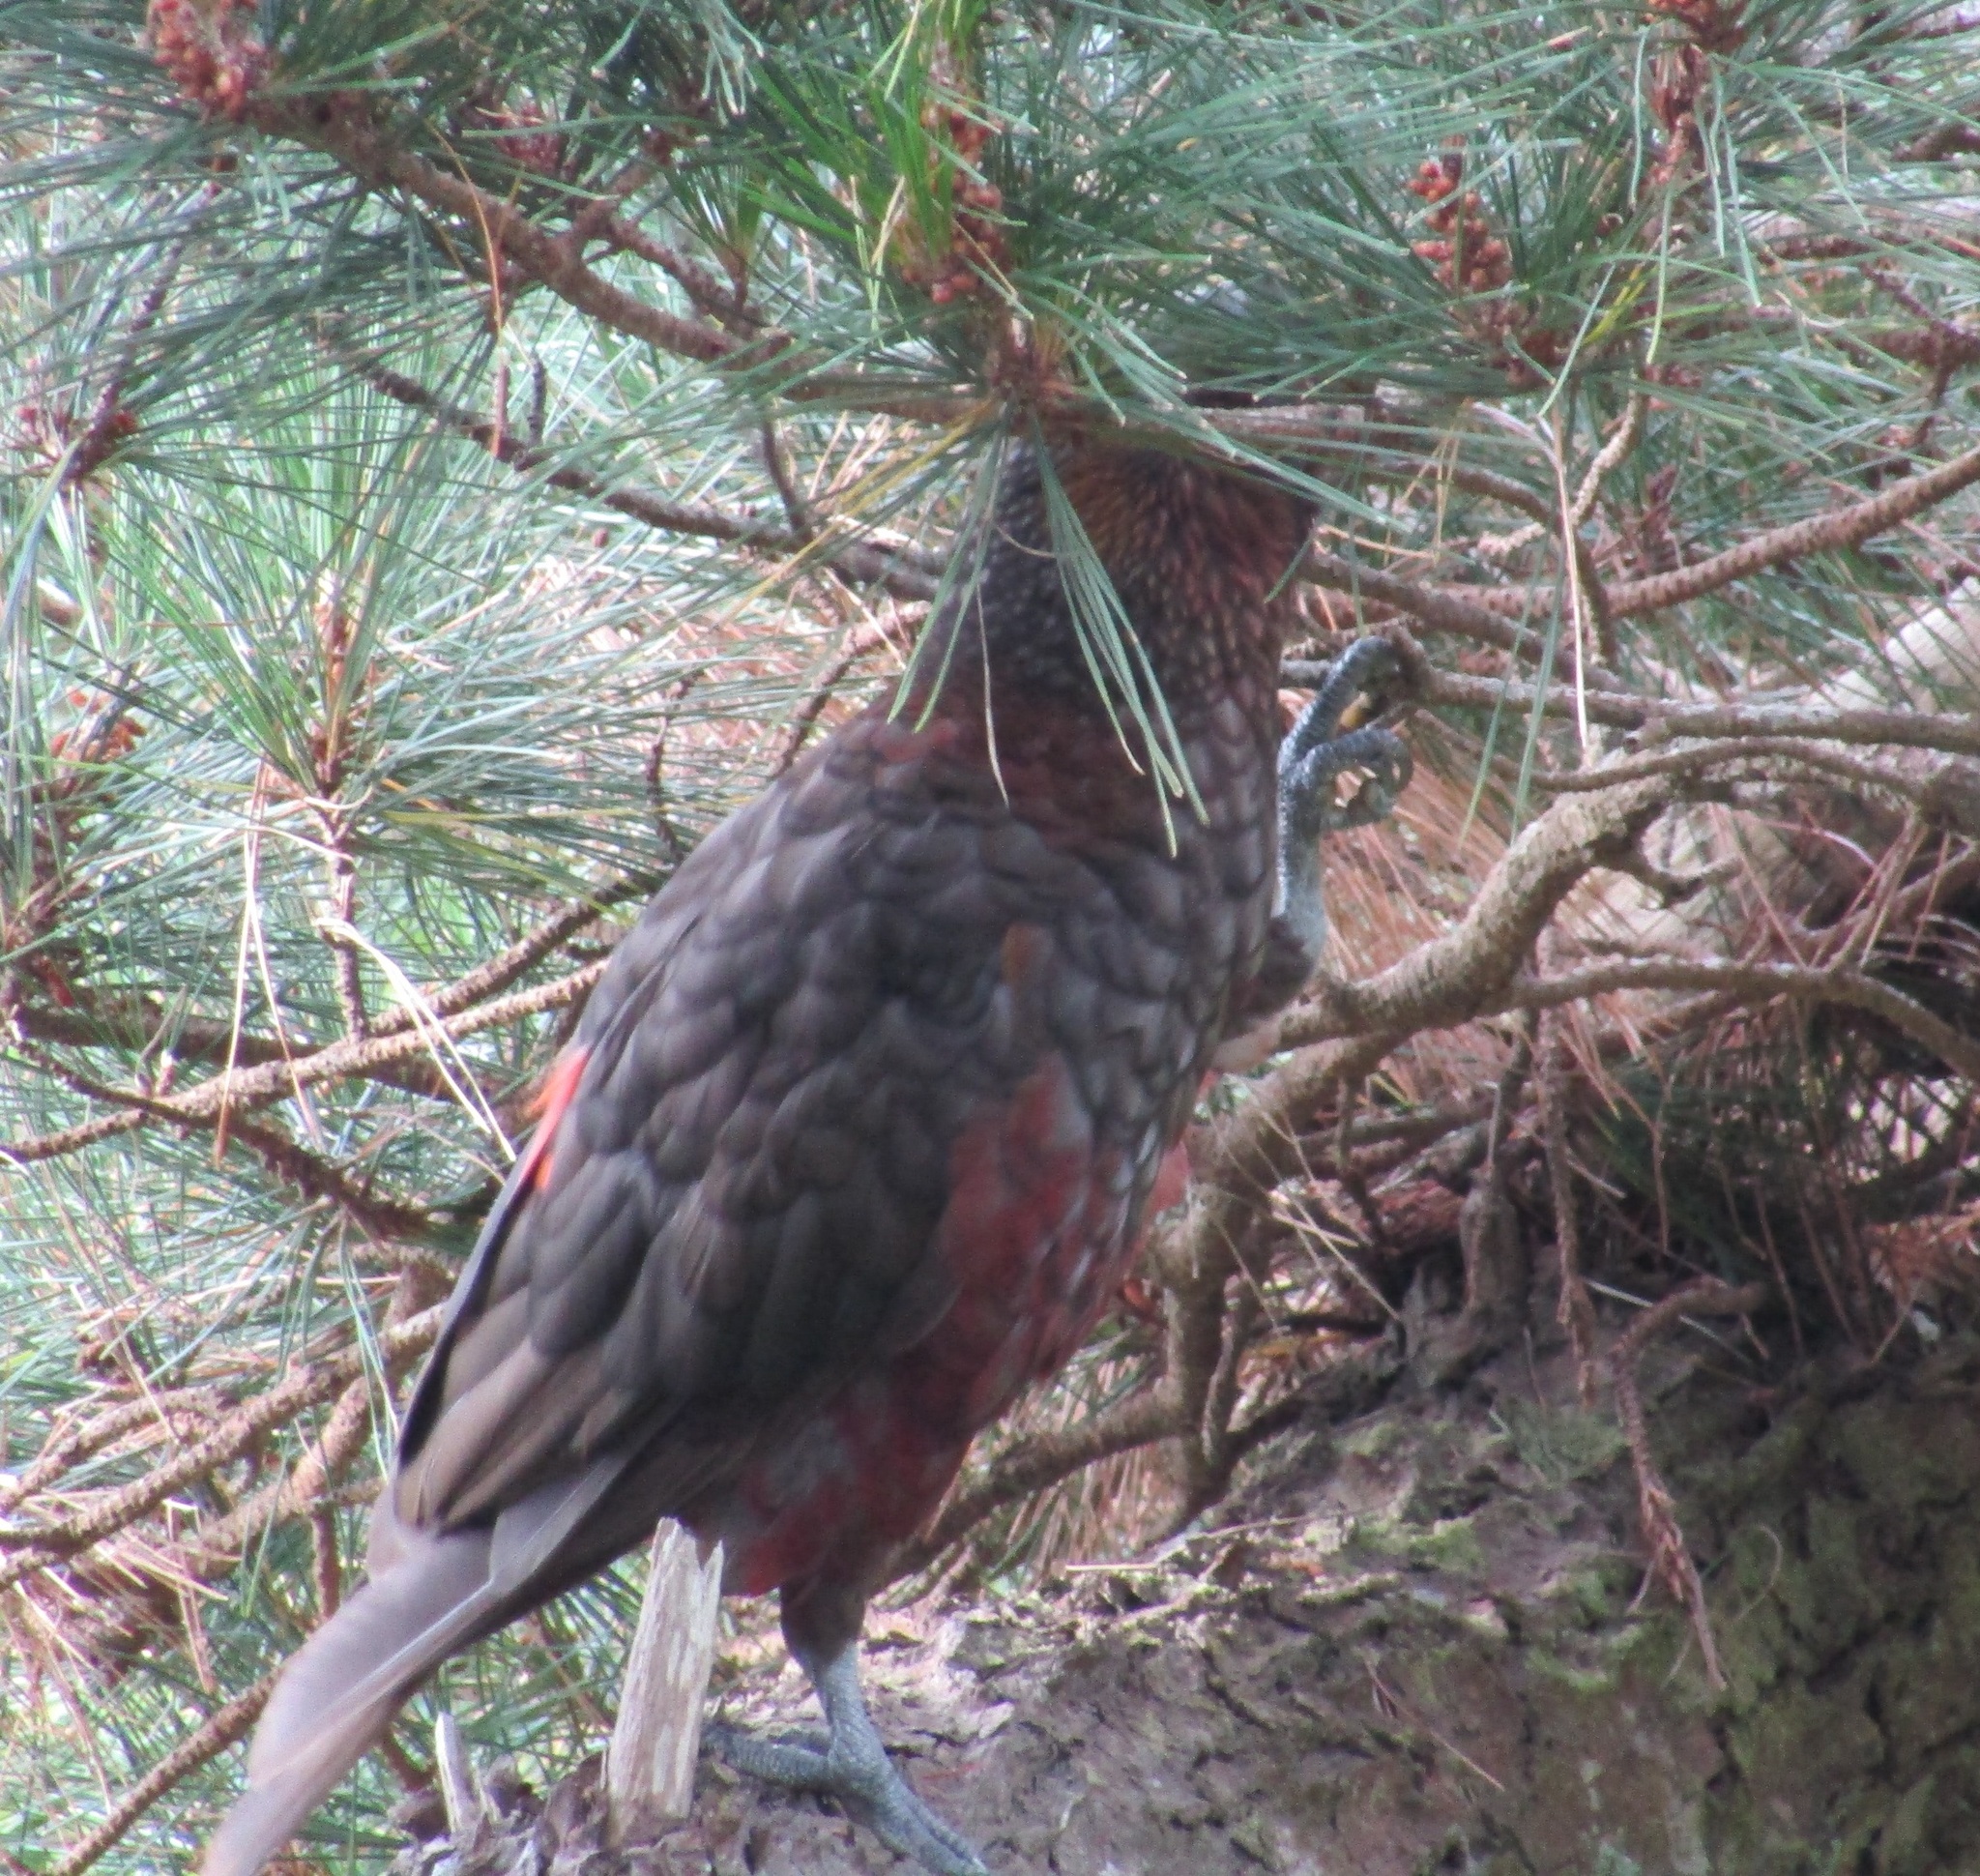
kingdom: Animalia
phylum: Chordata
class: Aves
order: Psittaciformes
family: Psittacidae
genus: Nestor
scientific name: Nestor meridionalis
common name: New zealand kaka
